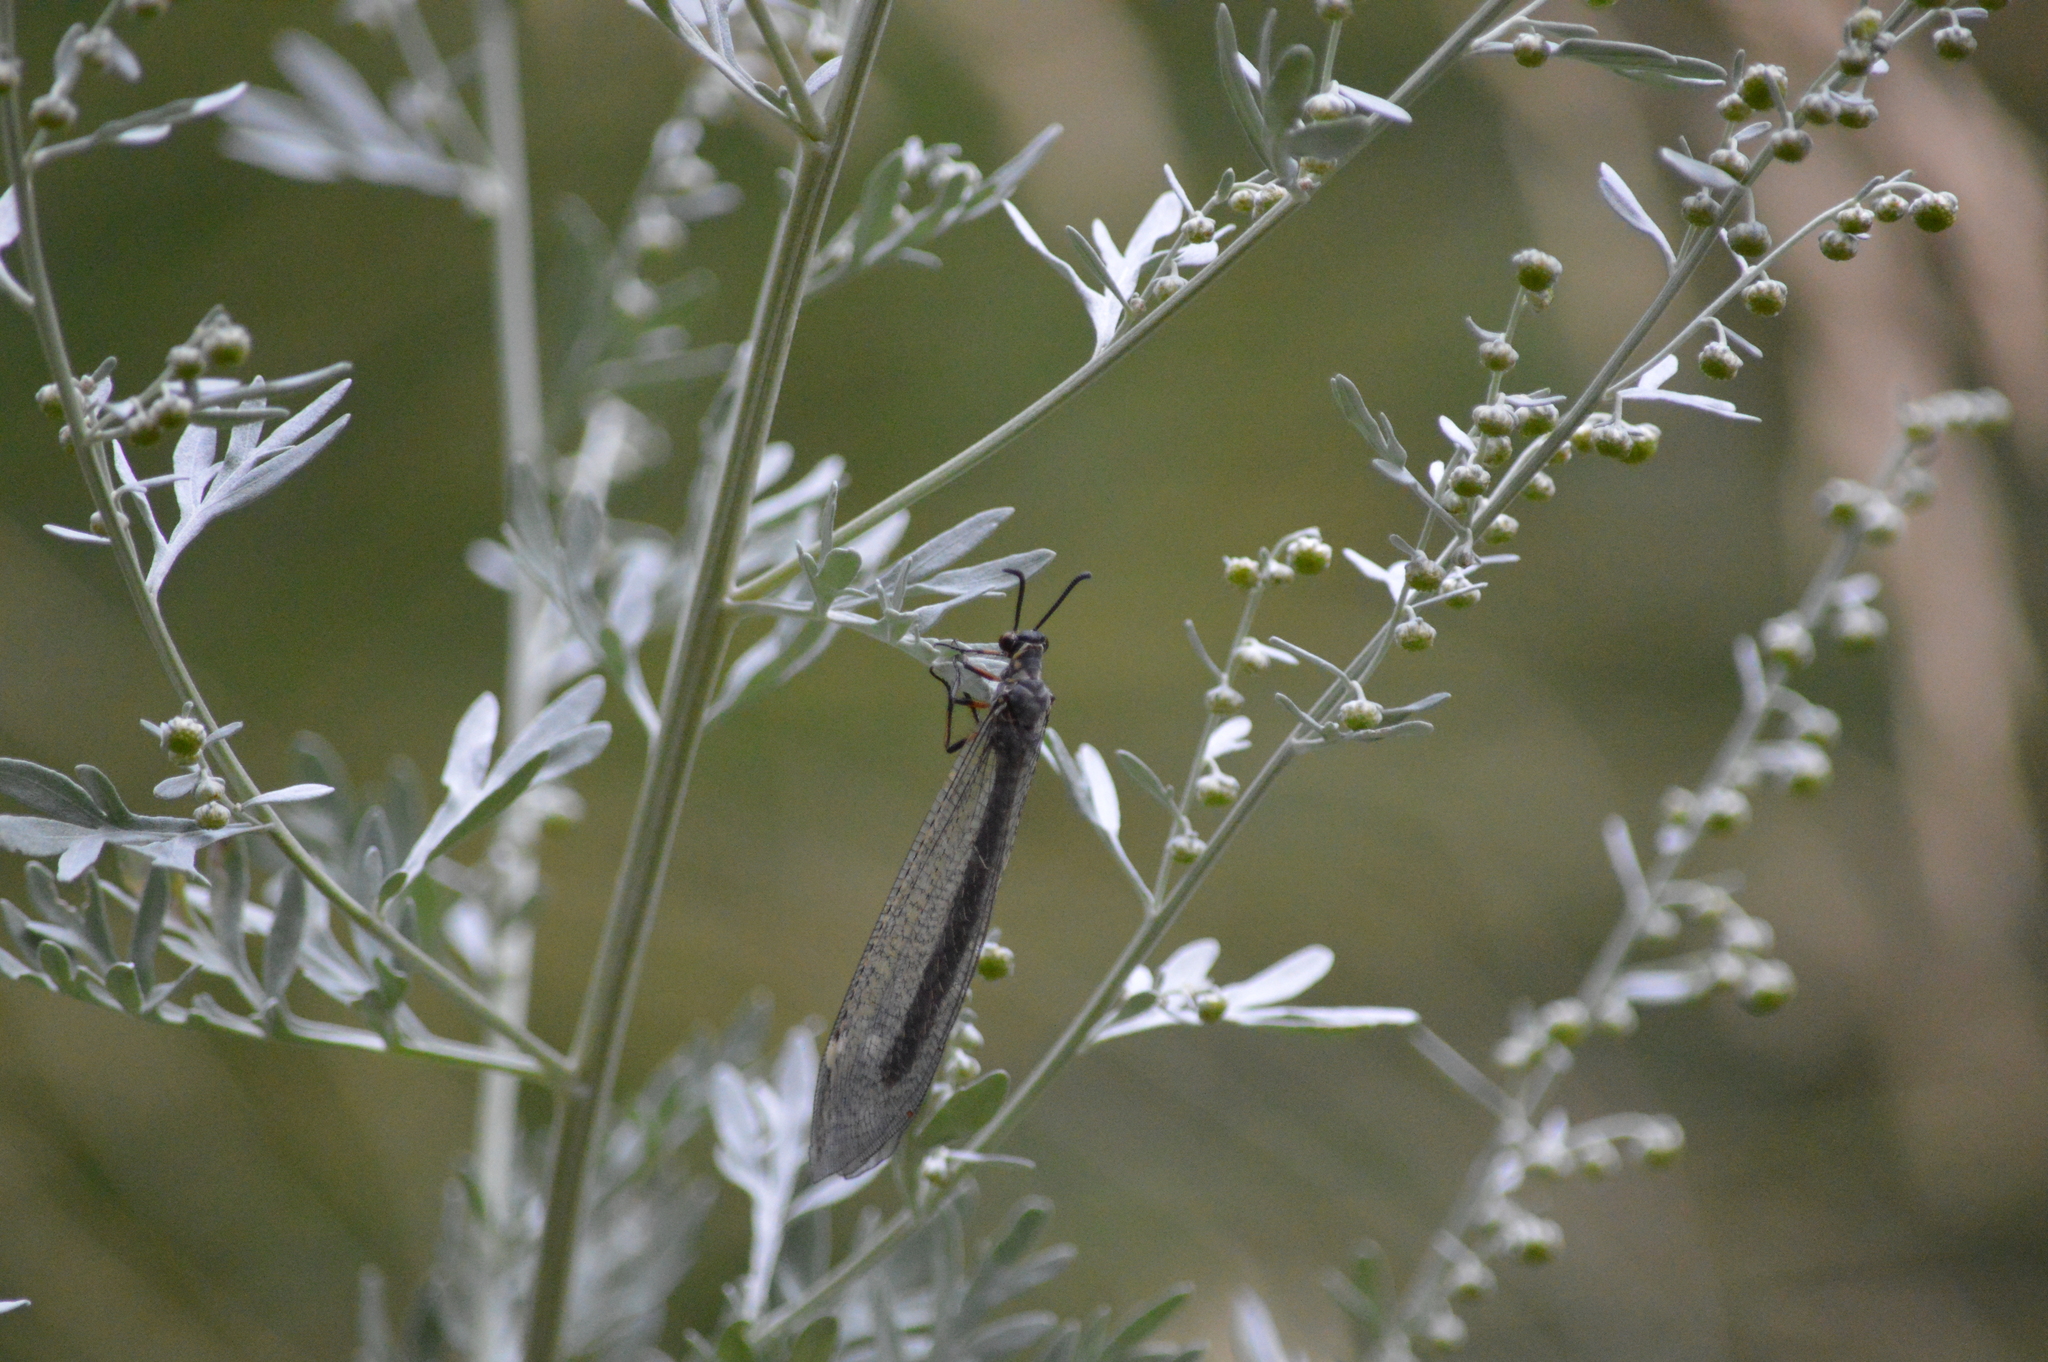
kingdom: Animalia
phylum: Arthropoda
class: Insecta
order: Neuroptera
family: Myrmeleontidae
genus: Myrmeleon
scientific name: Myrmeleon formicarius
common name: Ant-lion
